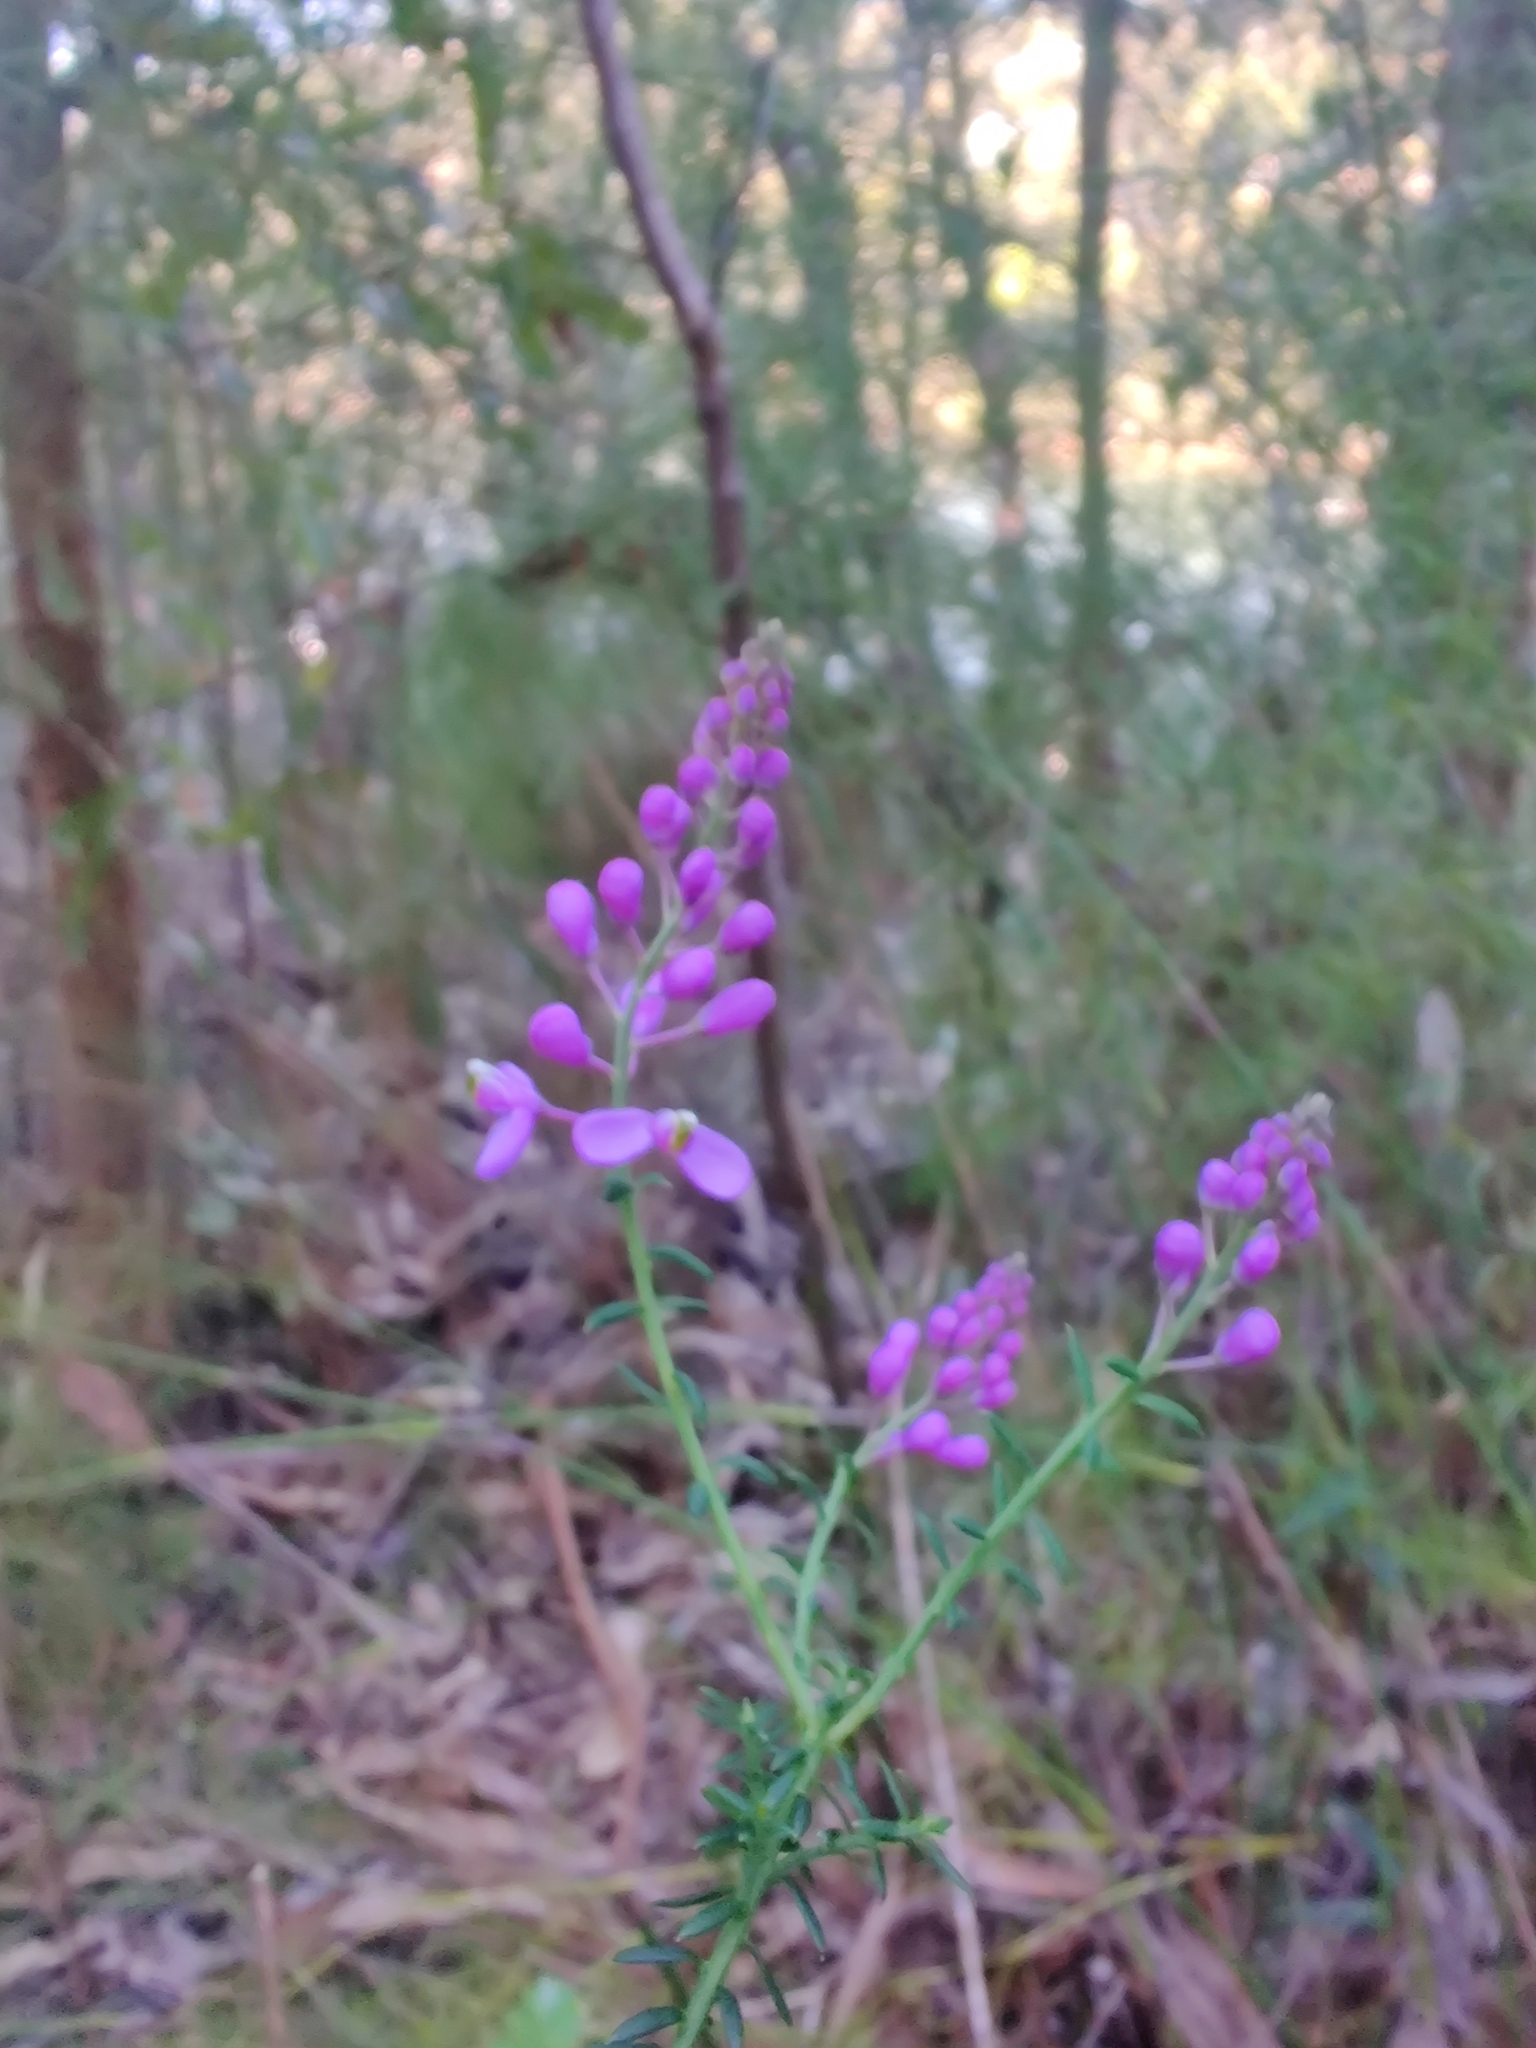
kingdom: Plantae
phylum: Tracheophyta
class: Magnoliopsida
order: Fabales
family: Polygalaceae
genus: Comesperma
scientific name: Comesperma ericinum
